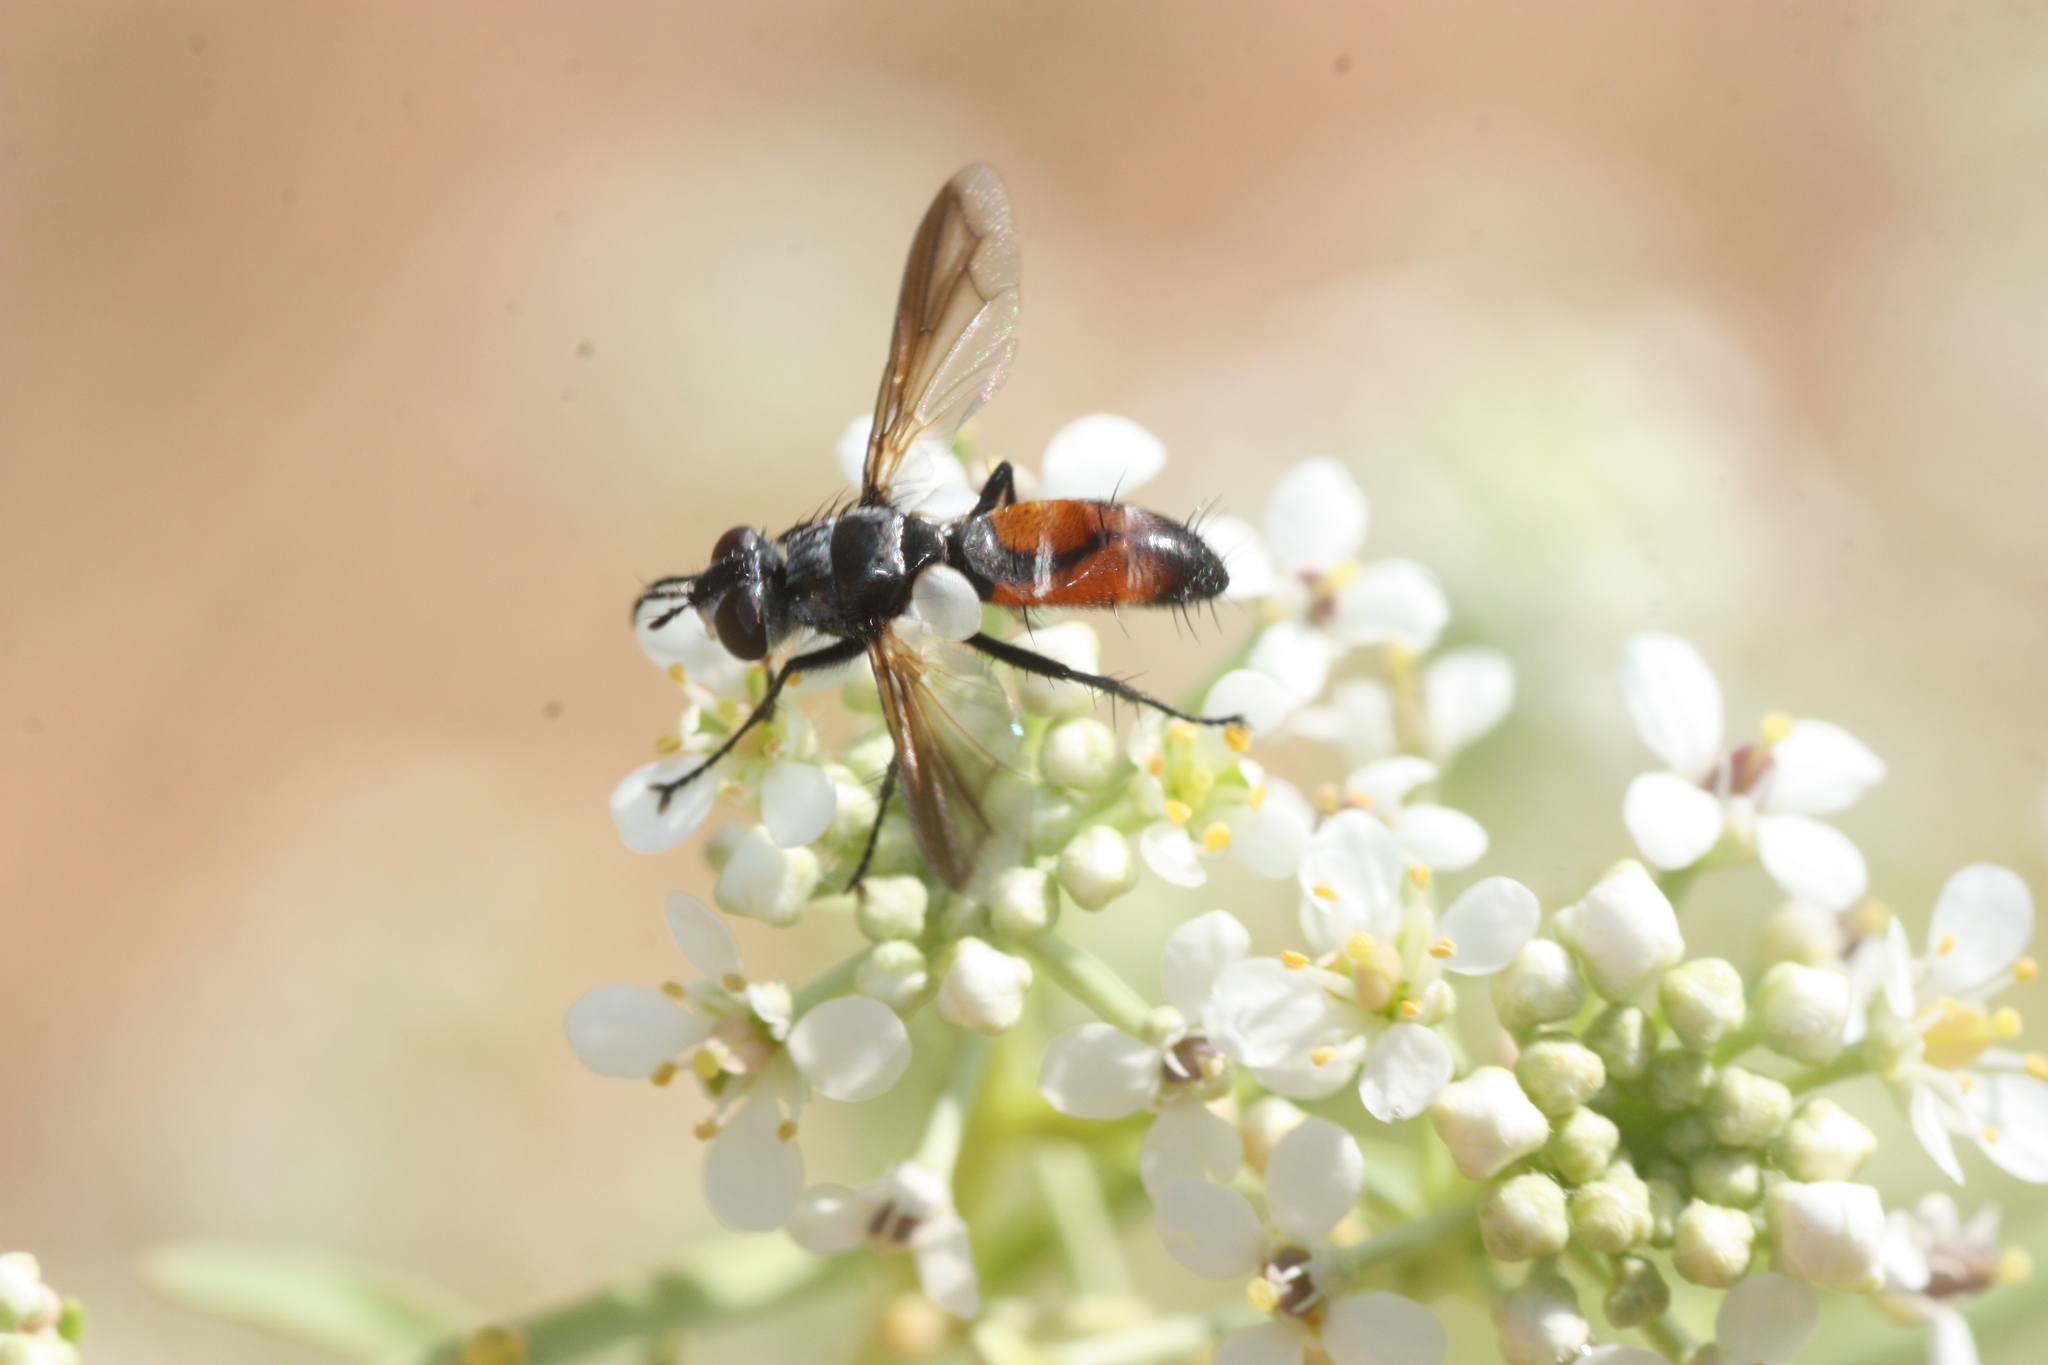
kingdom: Animalia
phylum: Arthropoda
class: Insecta
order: Diptera
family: Tachinidae
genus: Cylindromyia
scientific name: Cylindromyia
